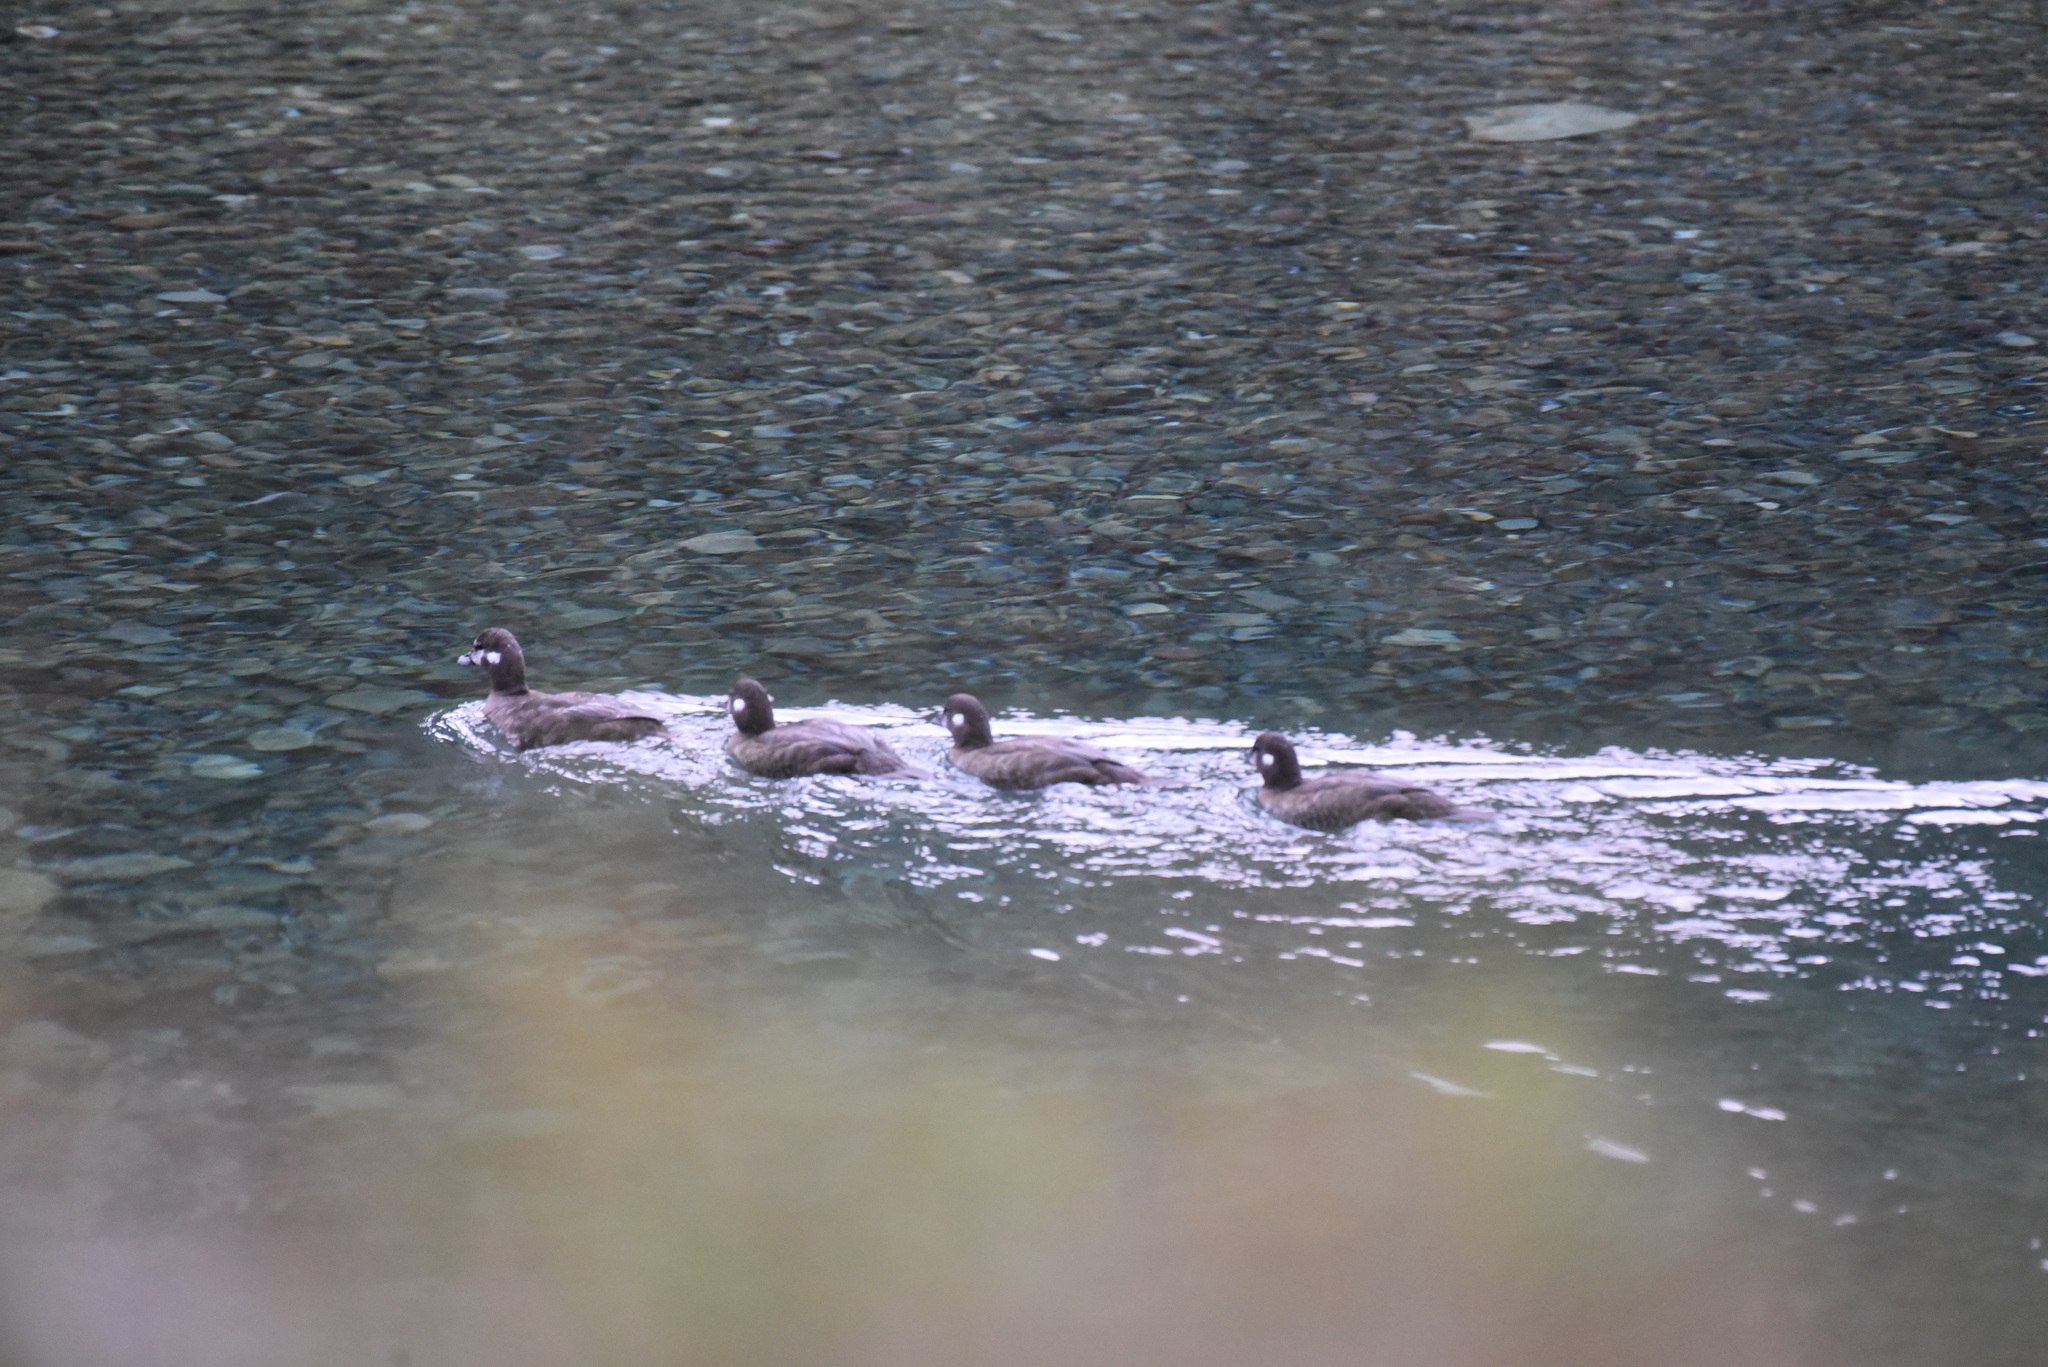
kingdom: Animalia
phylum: Chordata
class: Aves
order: Anseriformes
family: Anatidae
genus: Histrionicus
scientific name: Histrionicus histrionicus
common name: Harlequin duck
